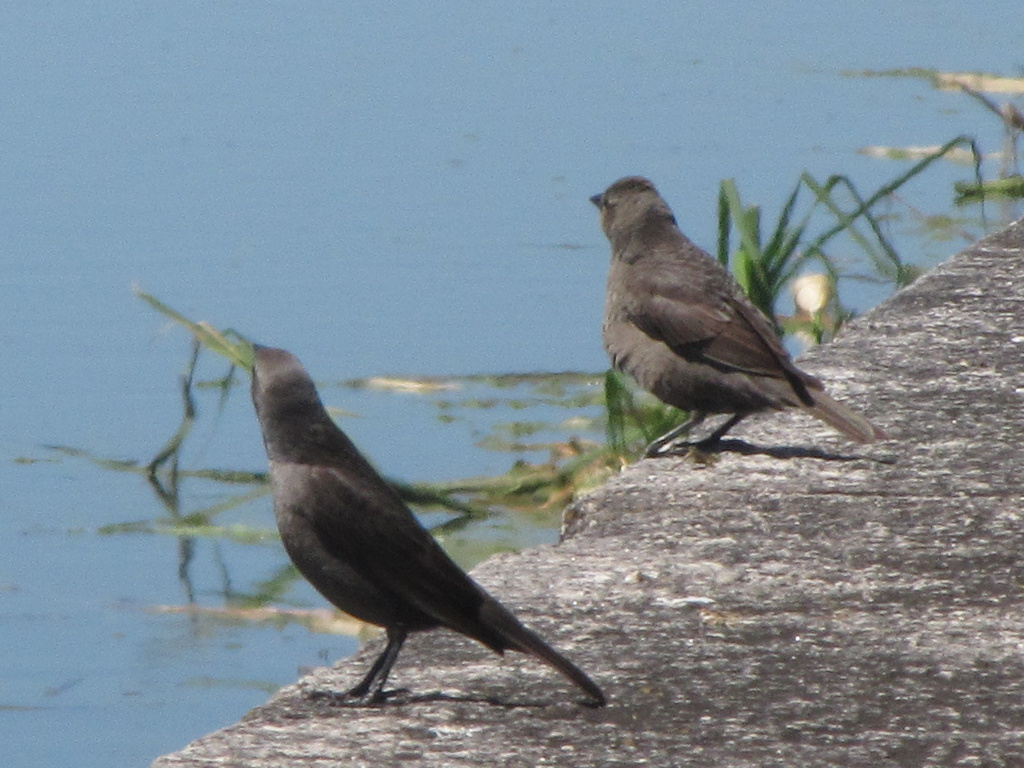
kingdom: Animalia
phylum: Chordata
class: Aves
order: Passeriformes
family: Icteridae
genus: Molothrus
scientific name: Molothrus bonariensis
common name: Shiny cowbird
